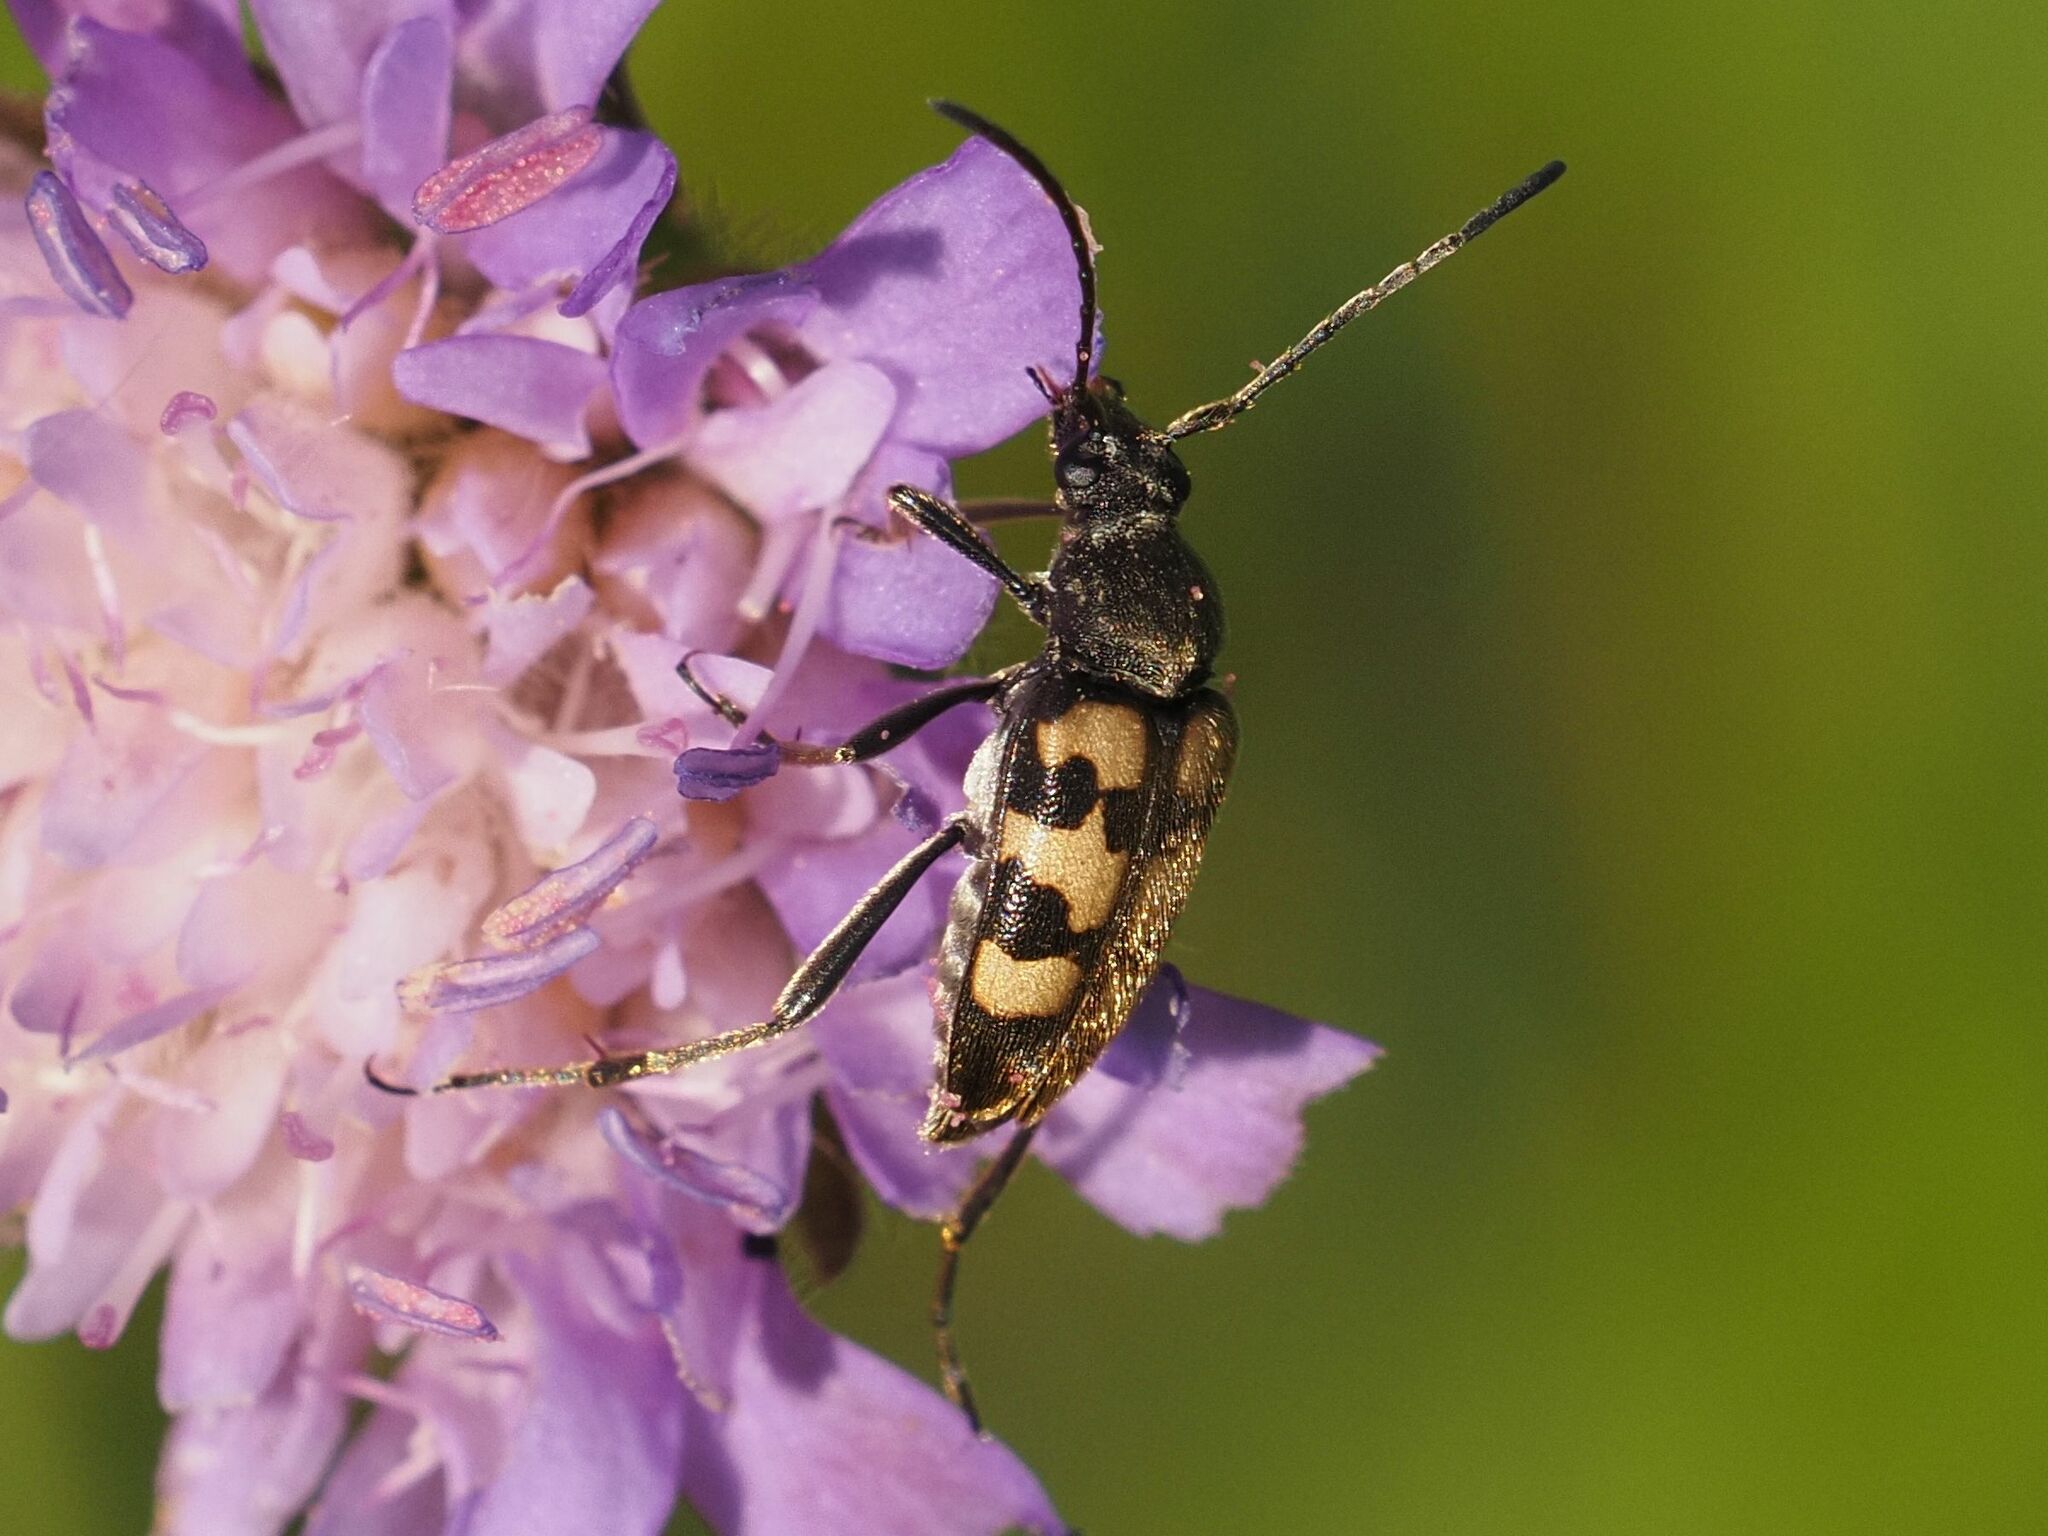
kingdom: Animalia
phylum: Arthropoda
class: Insecta
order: Coleoptera
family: Cerambycidae
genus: Pachytodes
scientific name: Pachytodes
